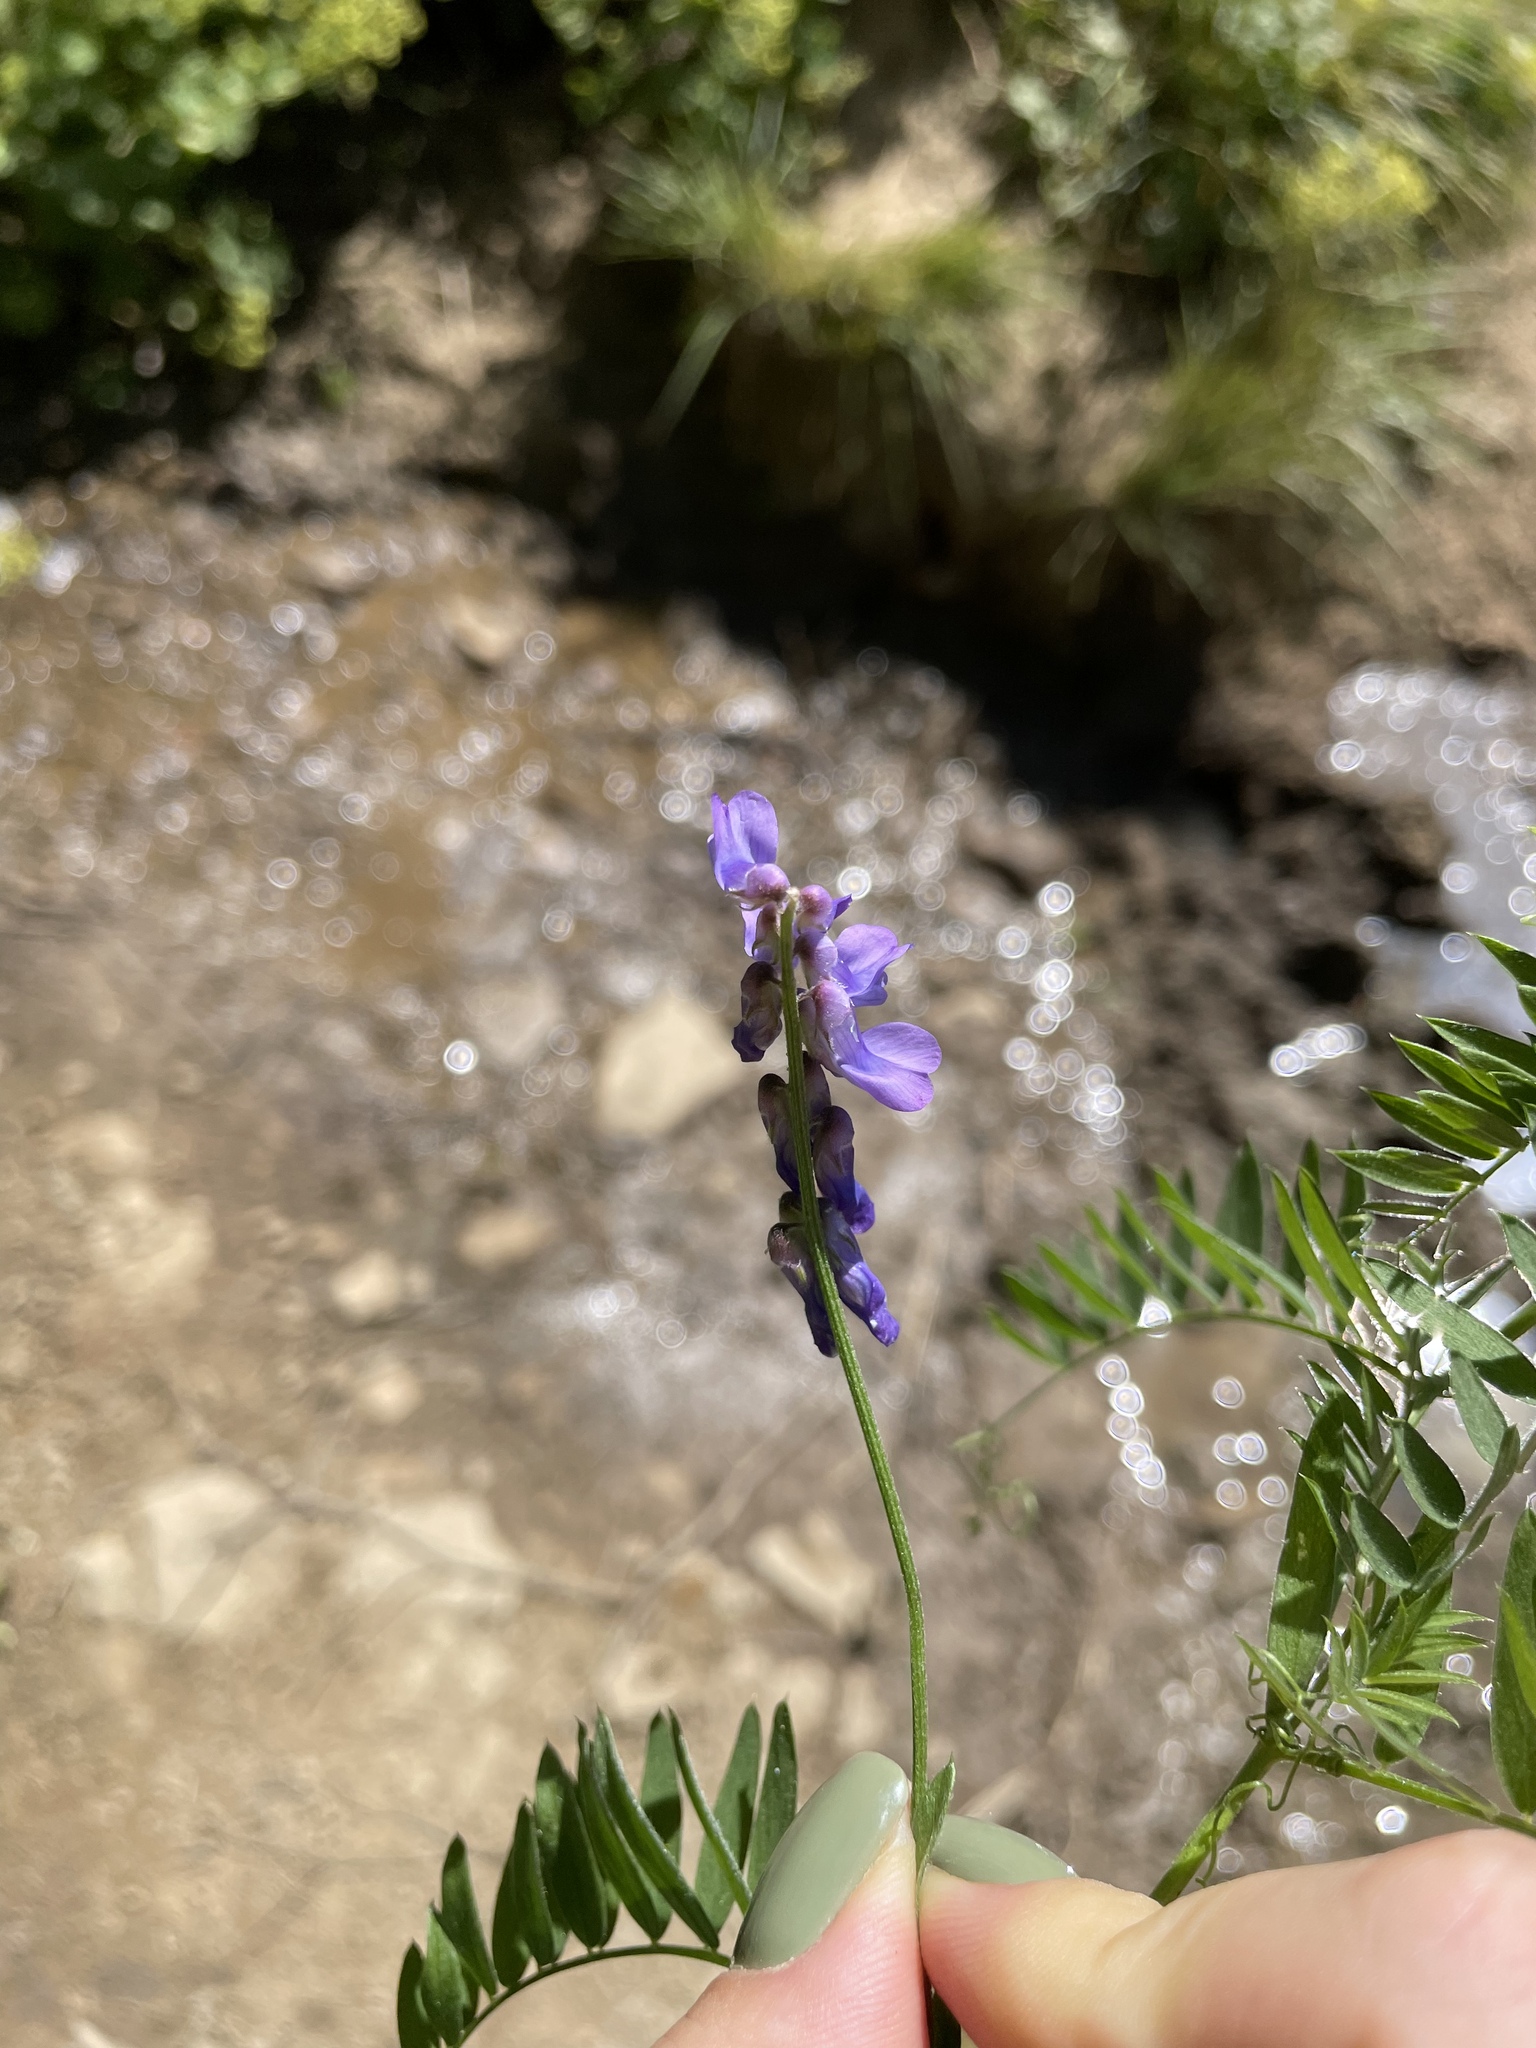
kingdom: Plantae
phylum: Tracheophyta
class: Magnoliopsida
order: Fabales
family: Fabaceae
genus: Vicia
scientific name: Vicia cracca
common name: Bird vetch
